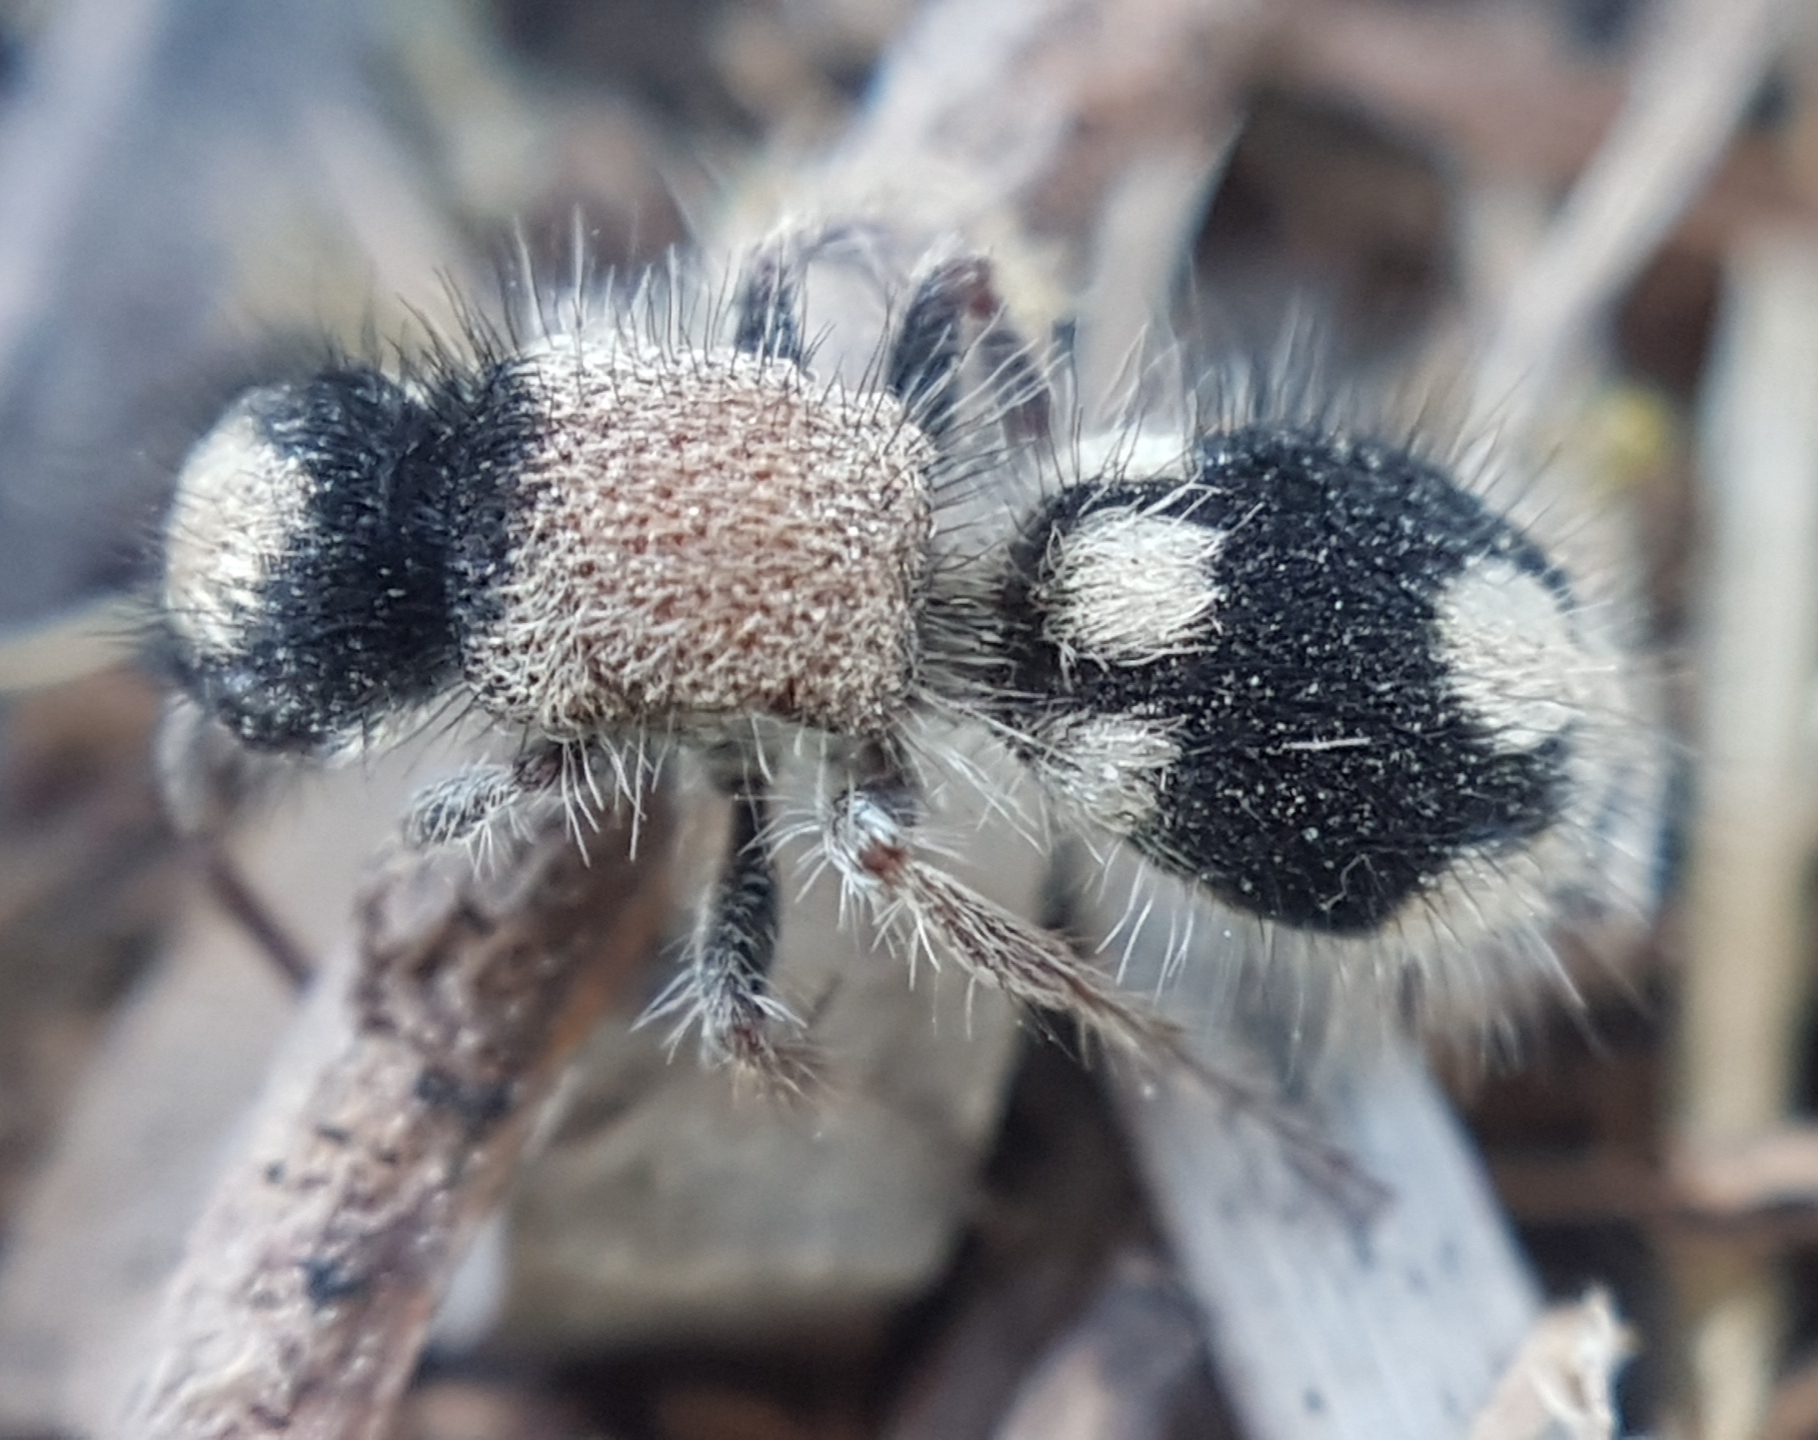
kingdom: Animalia
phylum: Arthropoda
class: Insecta
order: Hymenoptera
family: Mutillidae
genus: Ronisia
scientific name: Ronisia ghilianii
